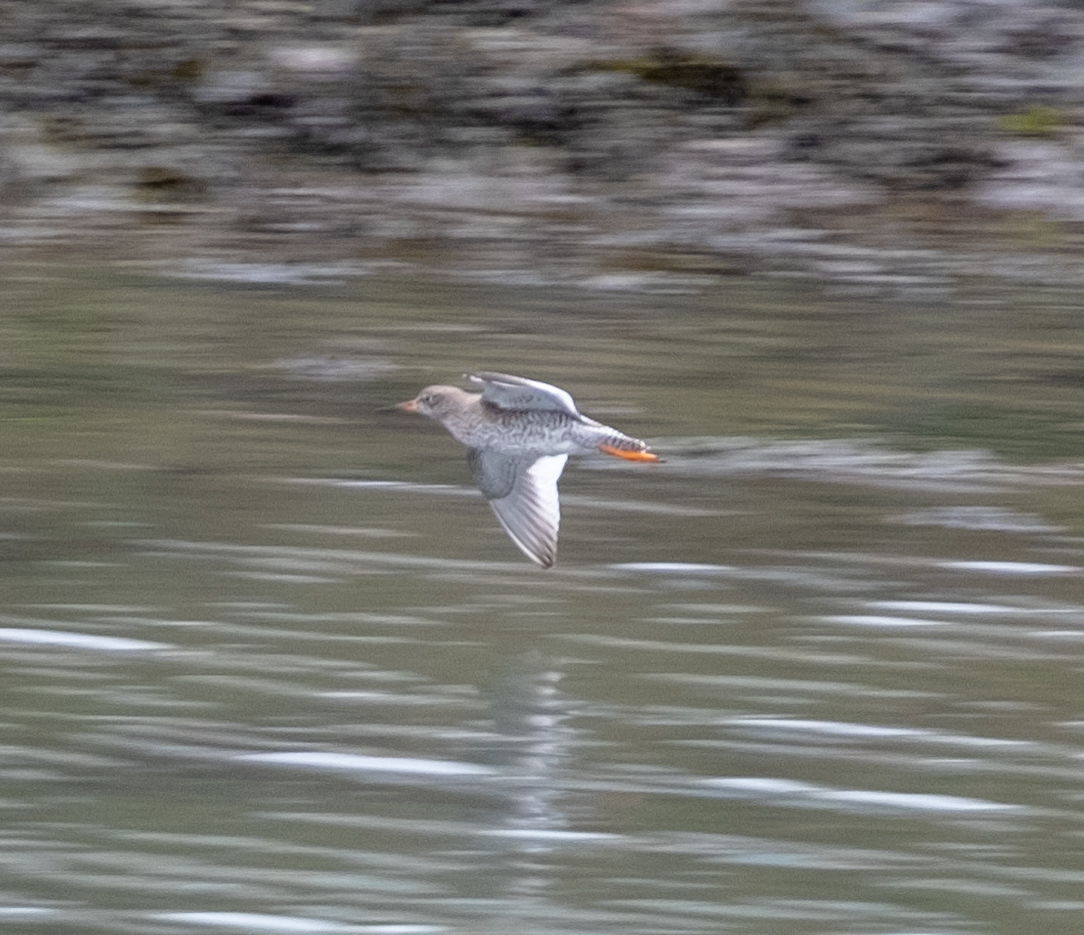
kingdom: Animalia
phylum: Chordata
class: Aves
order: Charadriiformes
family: Scolopacidae
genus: Tringa
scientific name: Tringa totanus
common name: Common redshank
